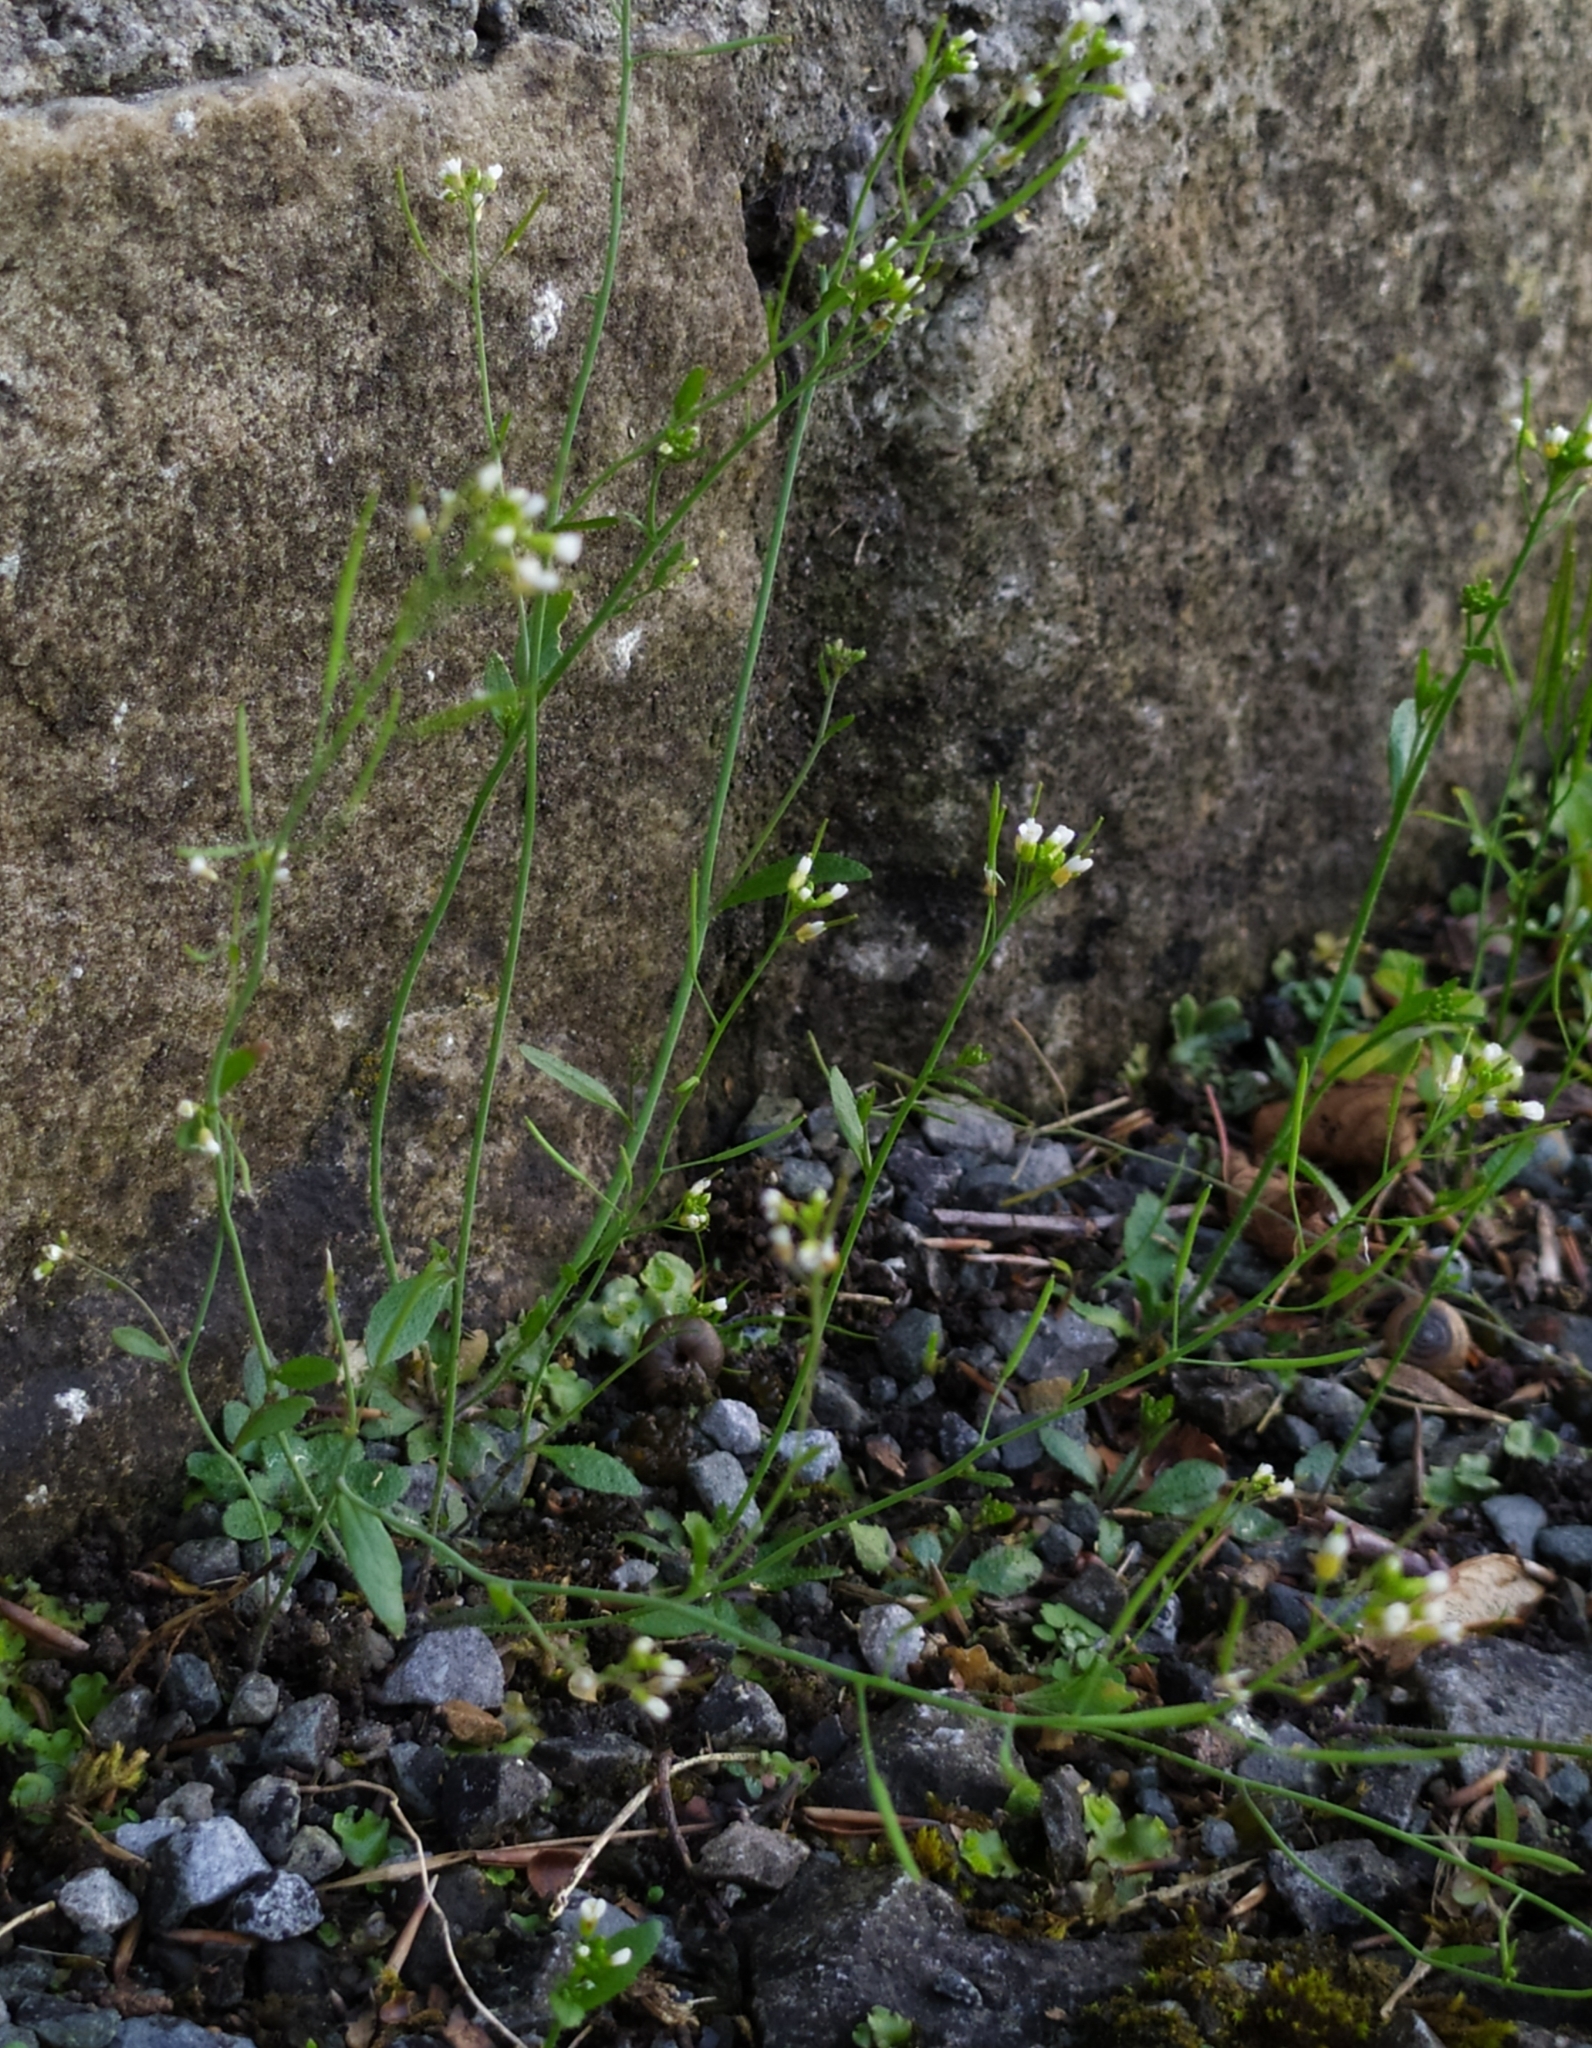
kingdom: Plantae
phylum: Tracheophyta
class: Magnoliopsida
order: Brassicales
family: Brassicaceae
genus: Arabidopsis
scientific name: Arabidopsis thaliana
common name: Thale cress
